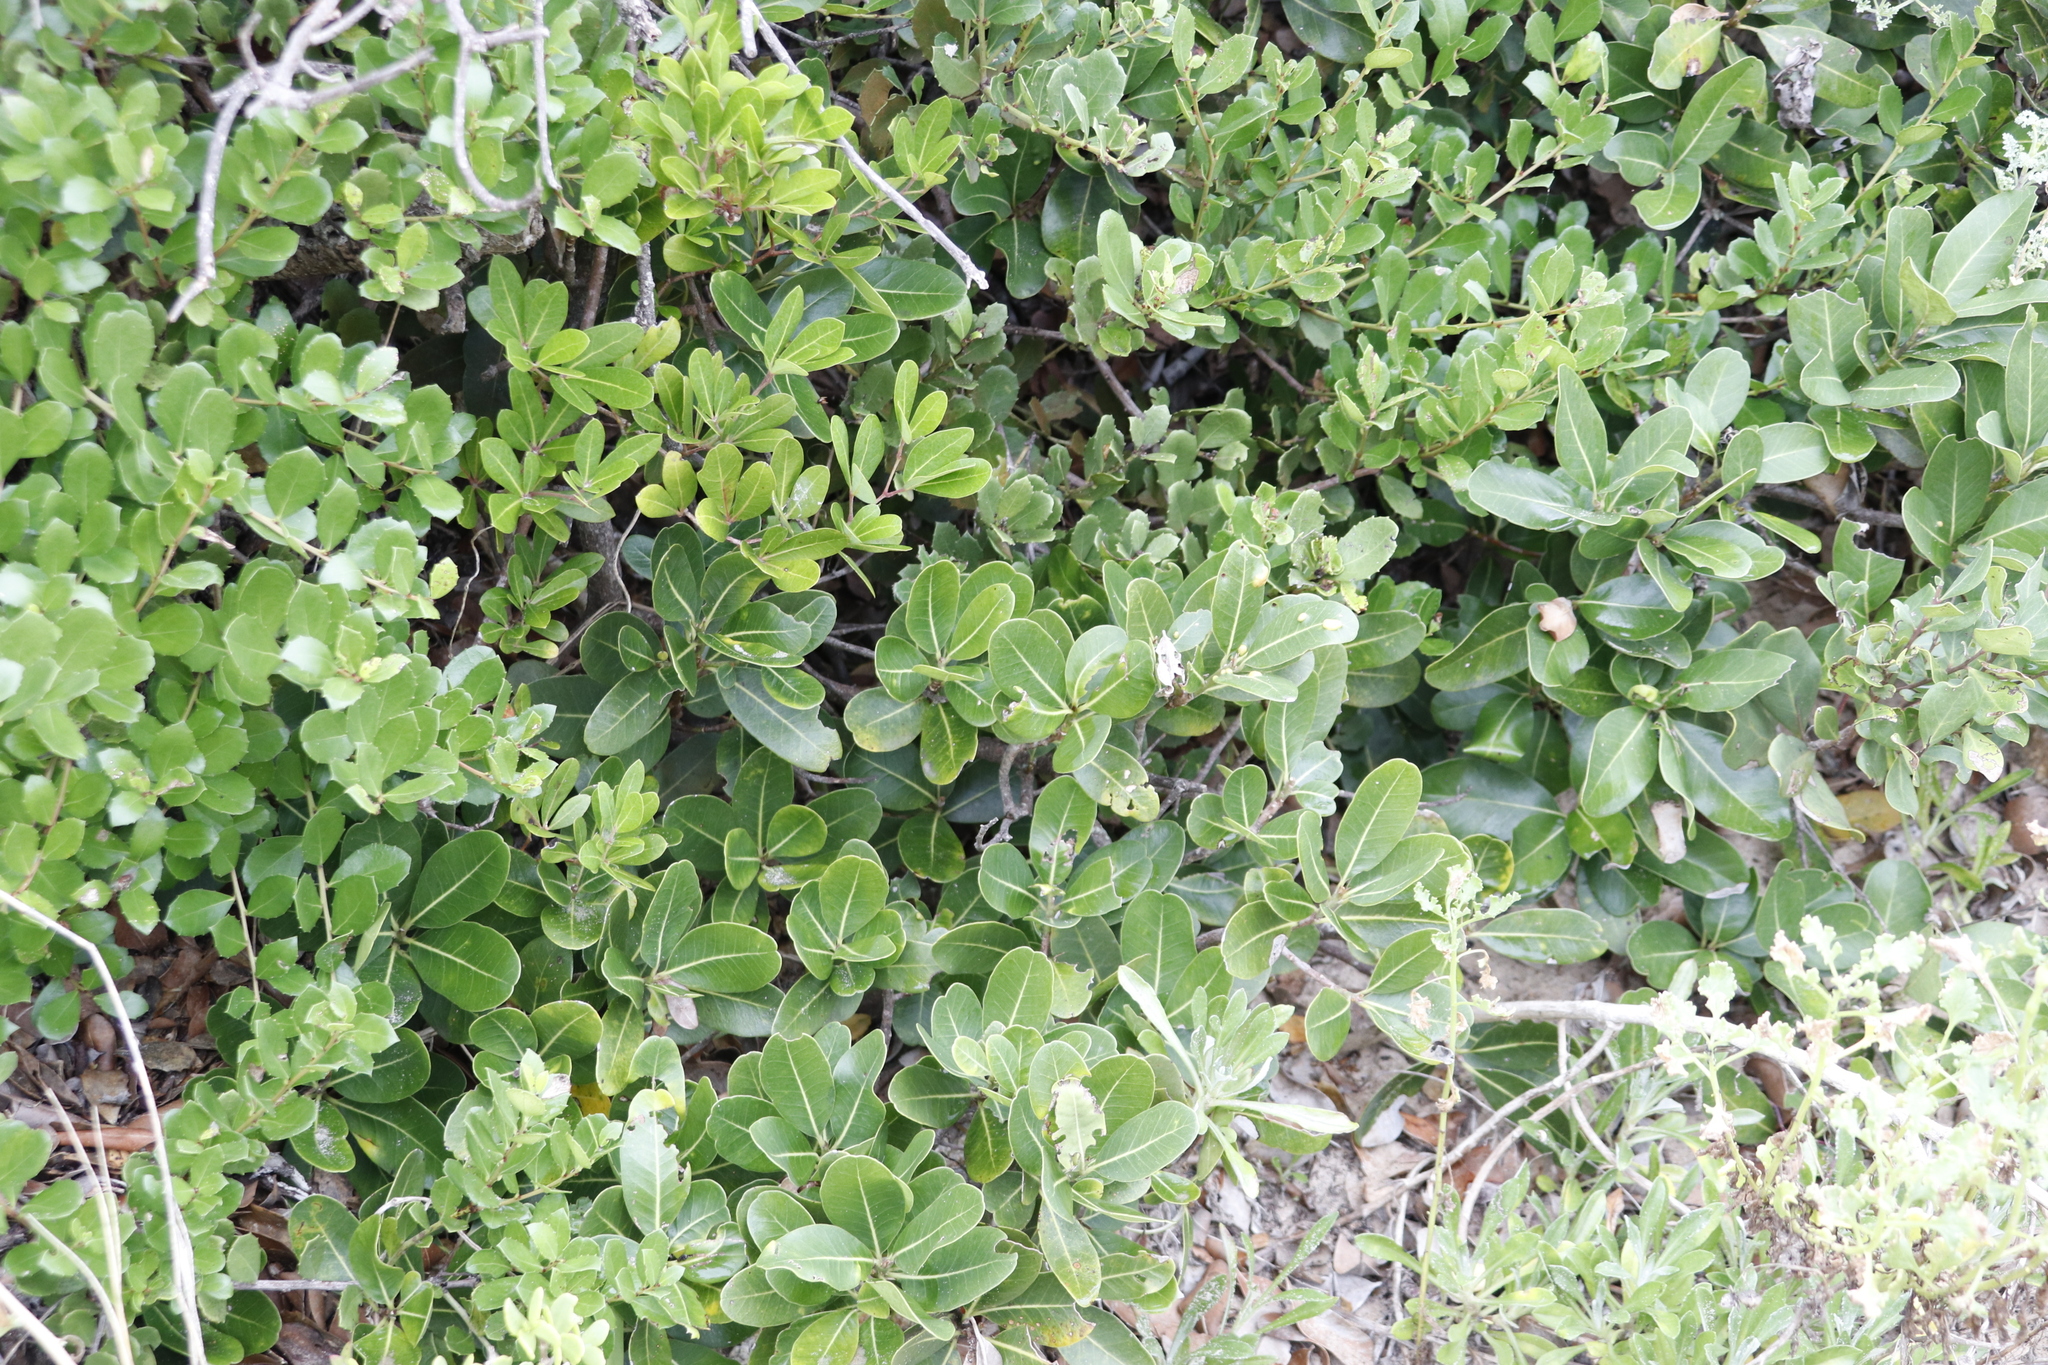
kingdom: Plantae
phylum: Tracheophyta
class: Magnoliopsida
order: Ericales
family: Sapotaceae
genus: Sideroxylon
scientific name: Sideroxylon inerme
